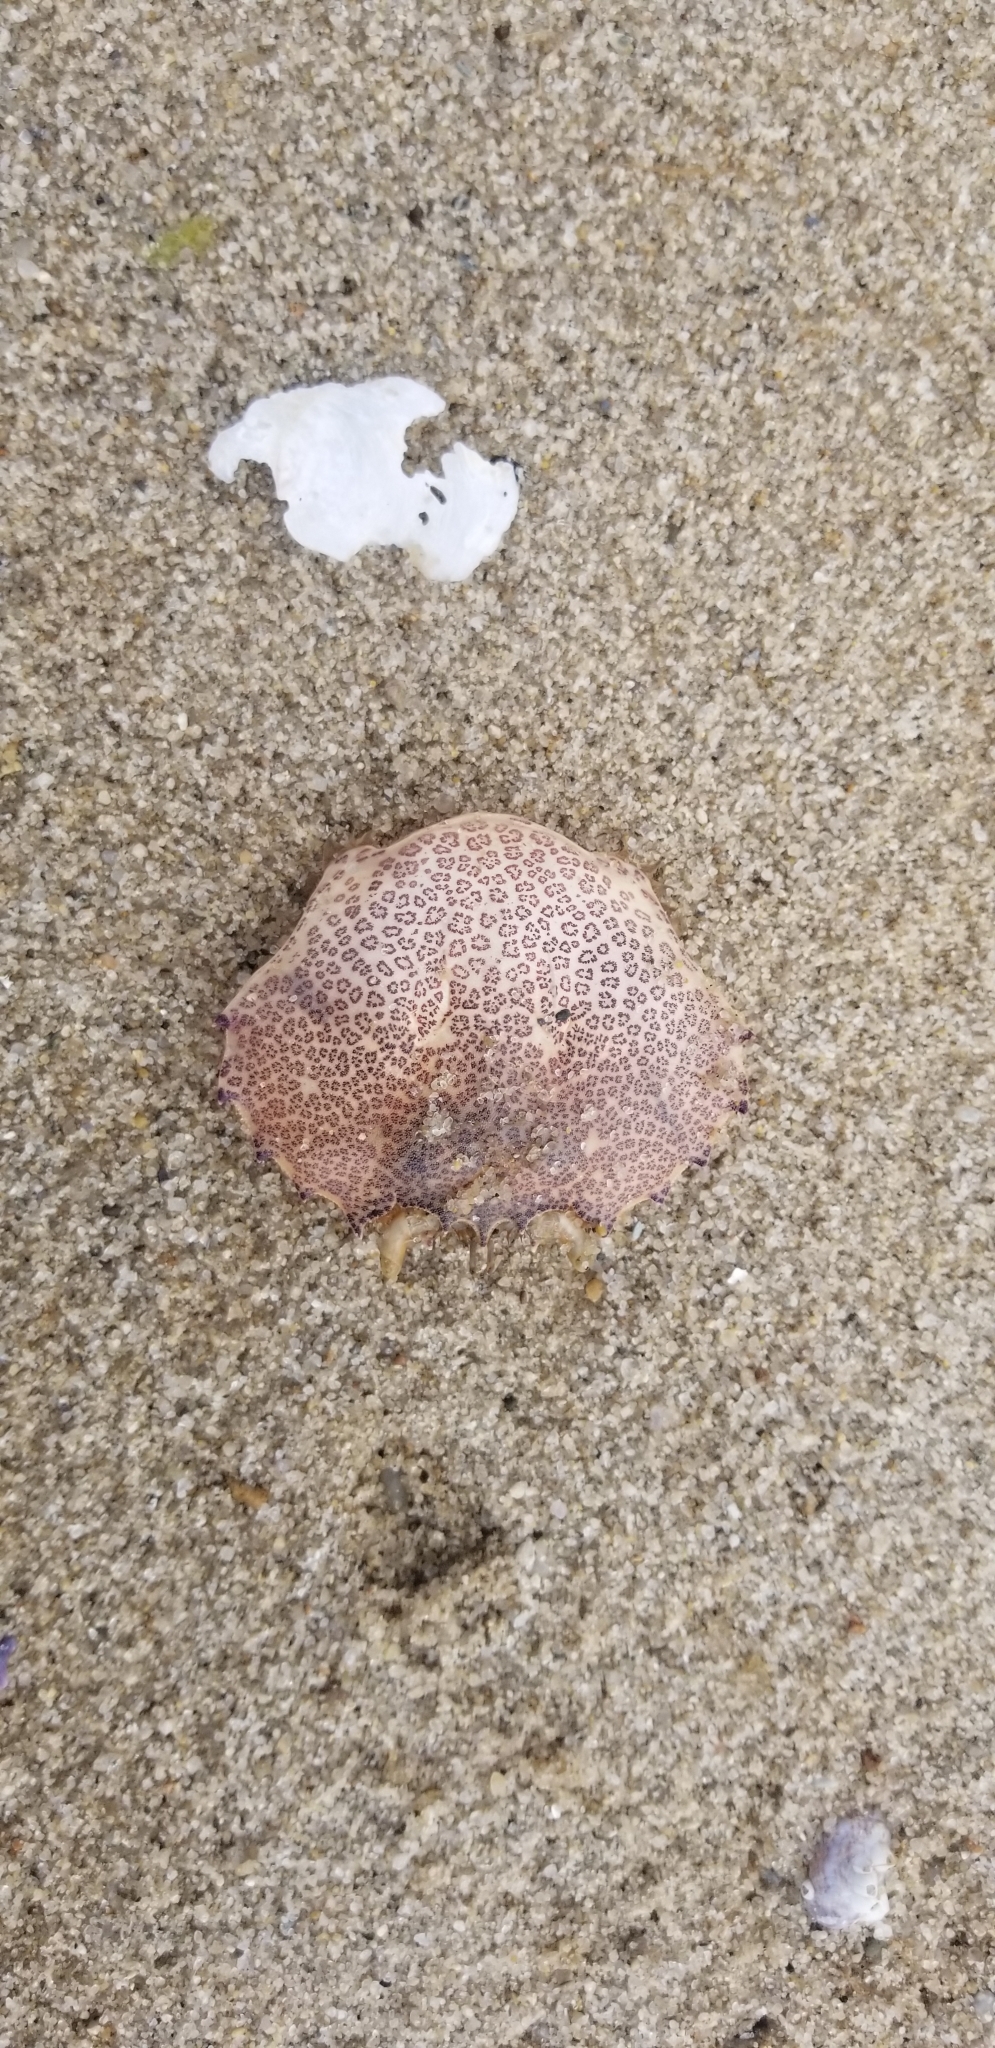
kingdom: Animalia
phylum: Arthropoda
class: Malacostraca
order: Decapoda
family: Ovalipidae
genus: Ovalipes
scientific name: Ovalipes ocellatus
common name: Lady crab
